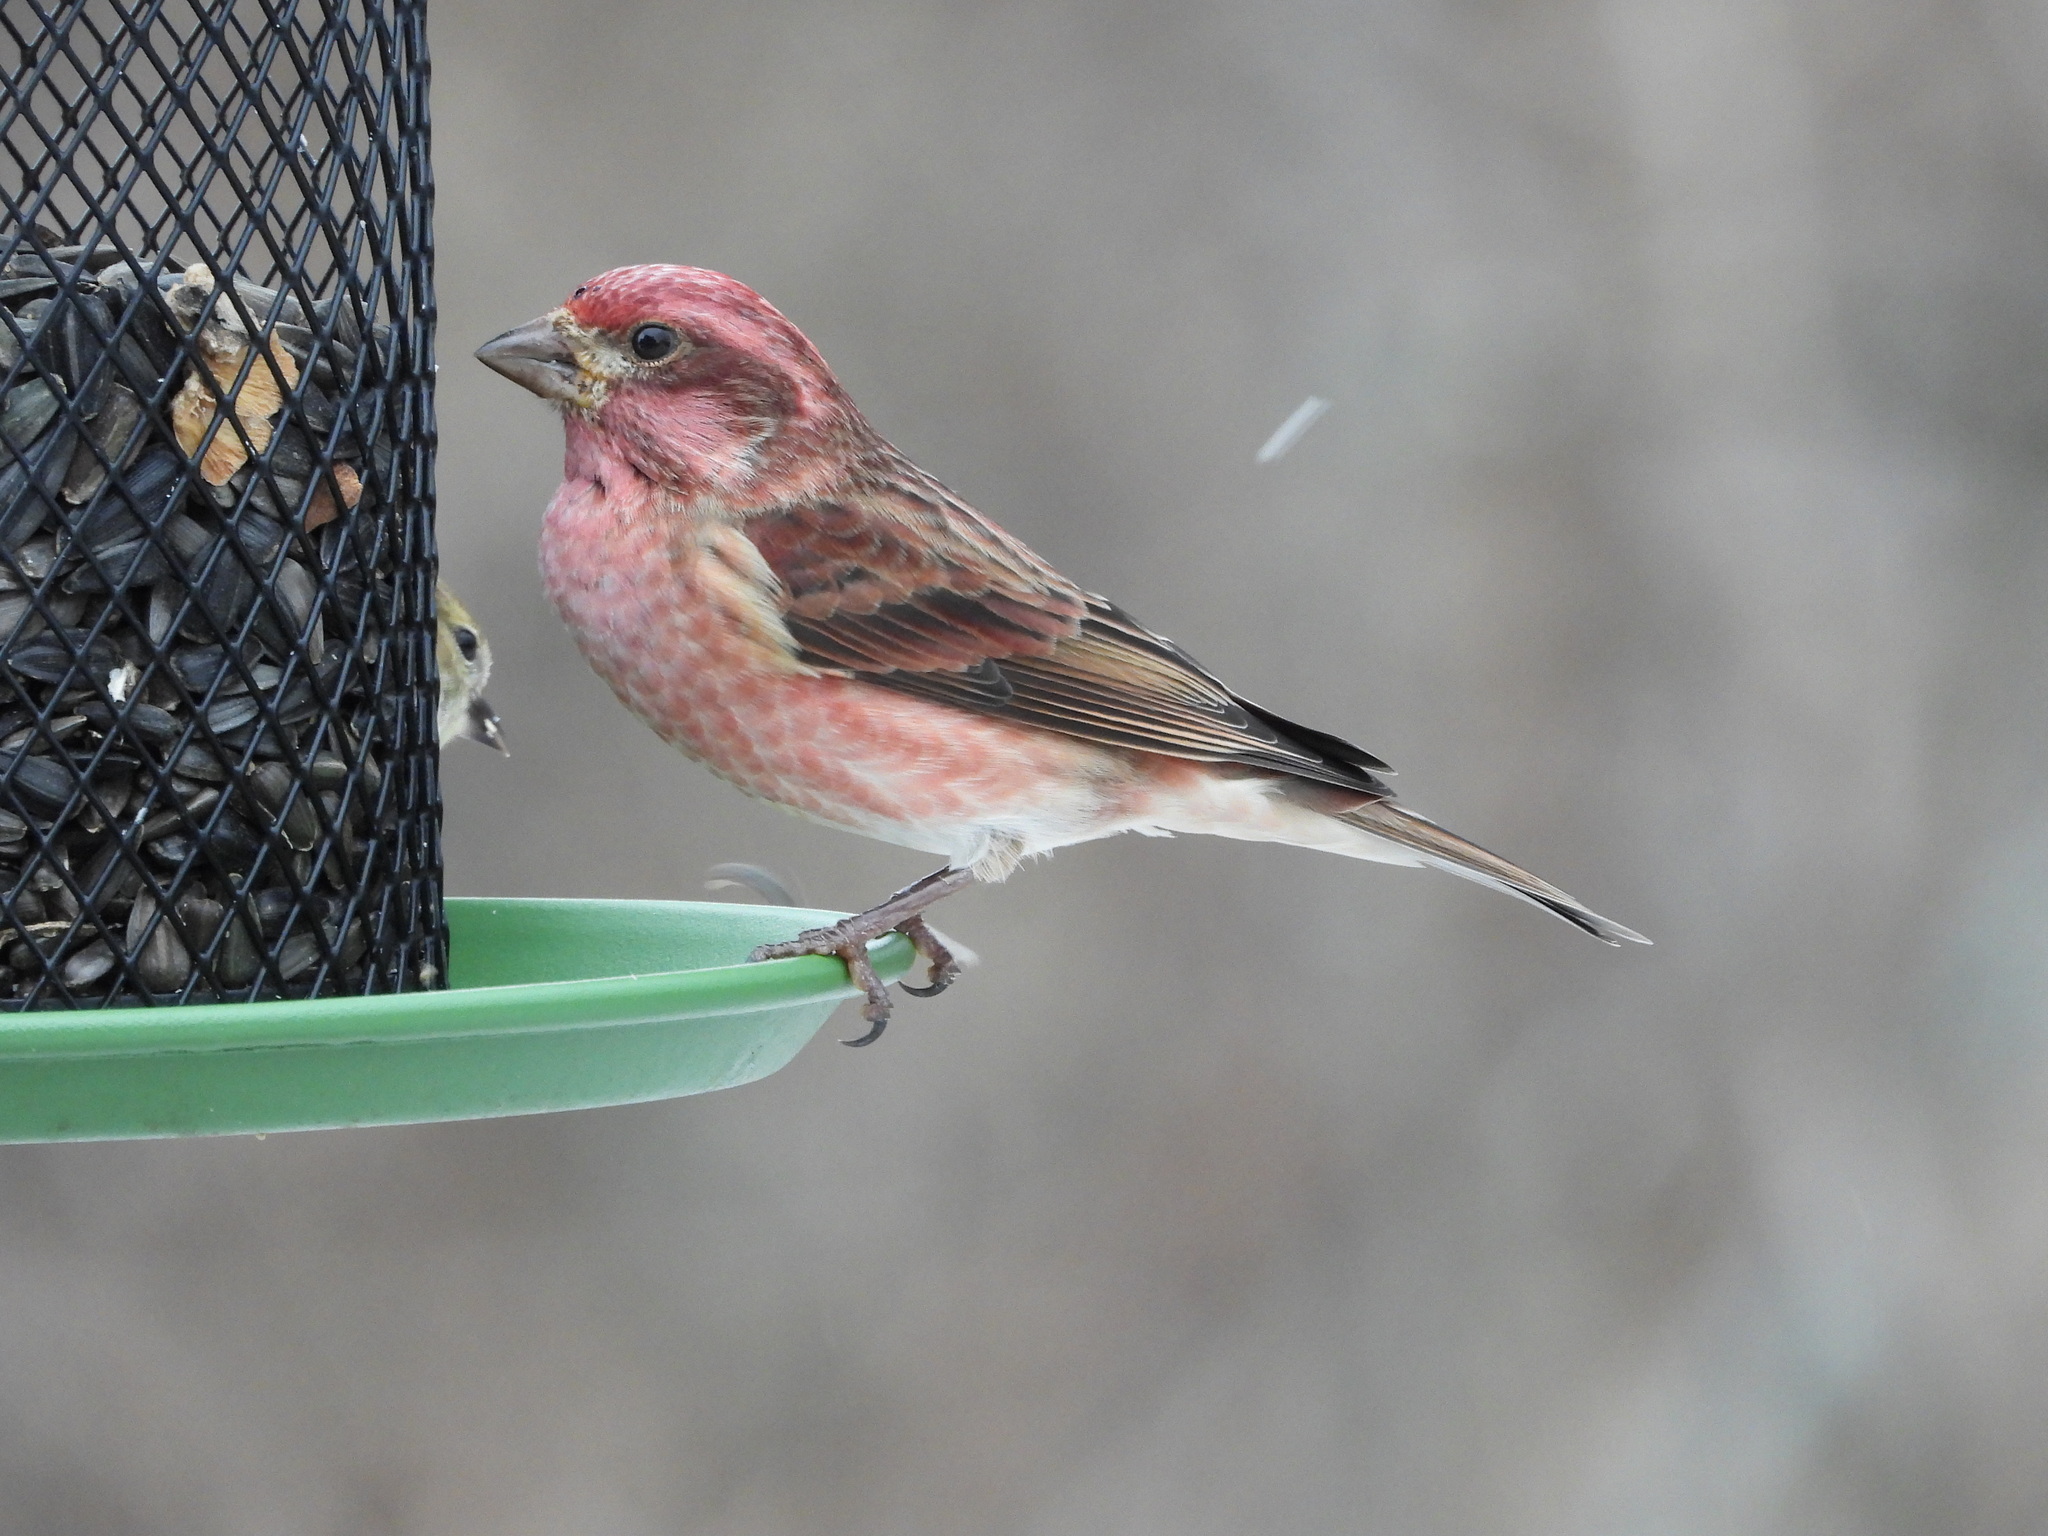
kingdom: Animalia
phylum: Chordata
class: Aves
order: Passeriformes
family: Fringillidae
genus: Haemorhous
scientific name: Haemorhous purpureus
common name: Purple finch
